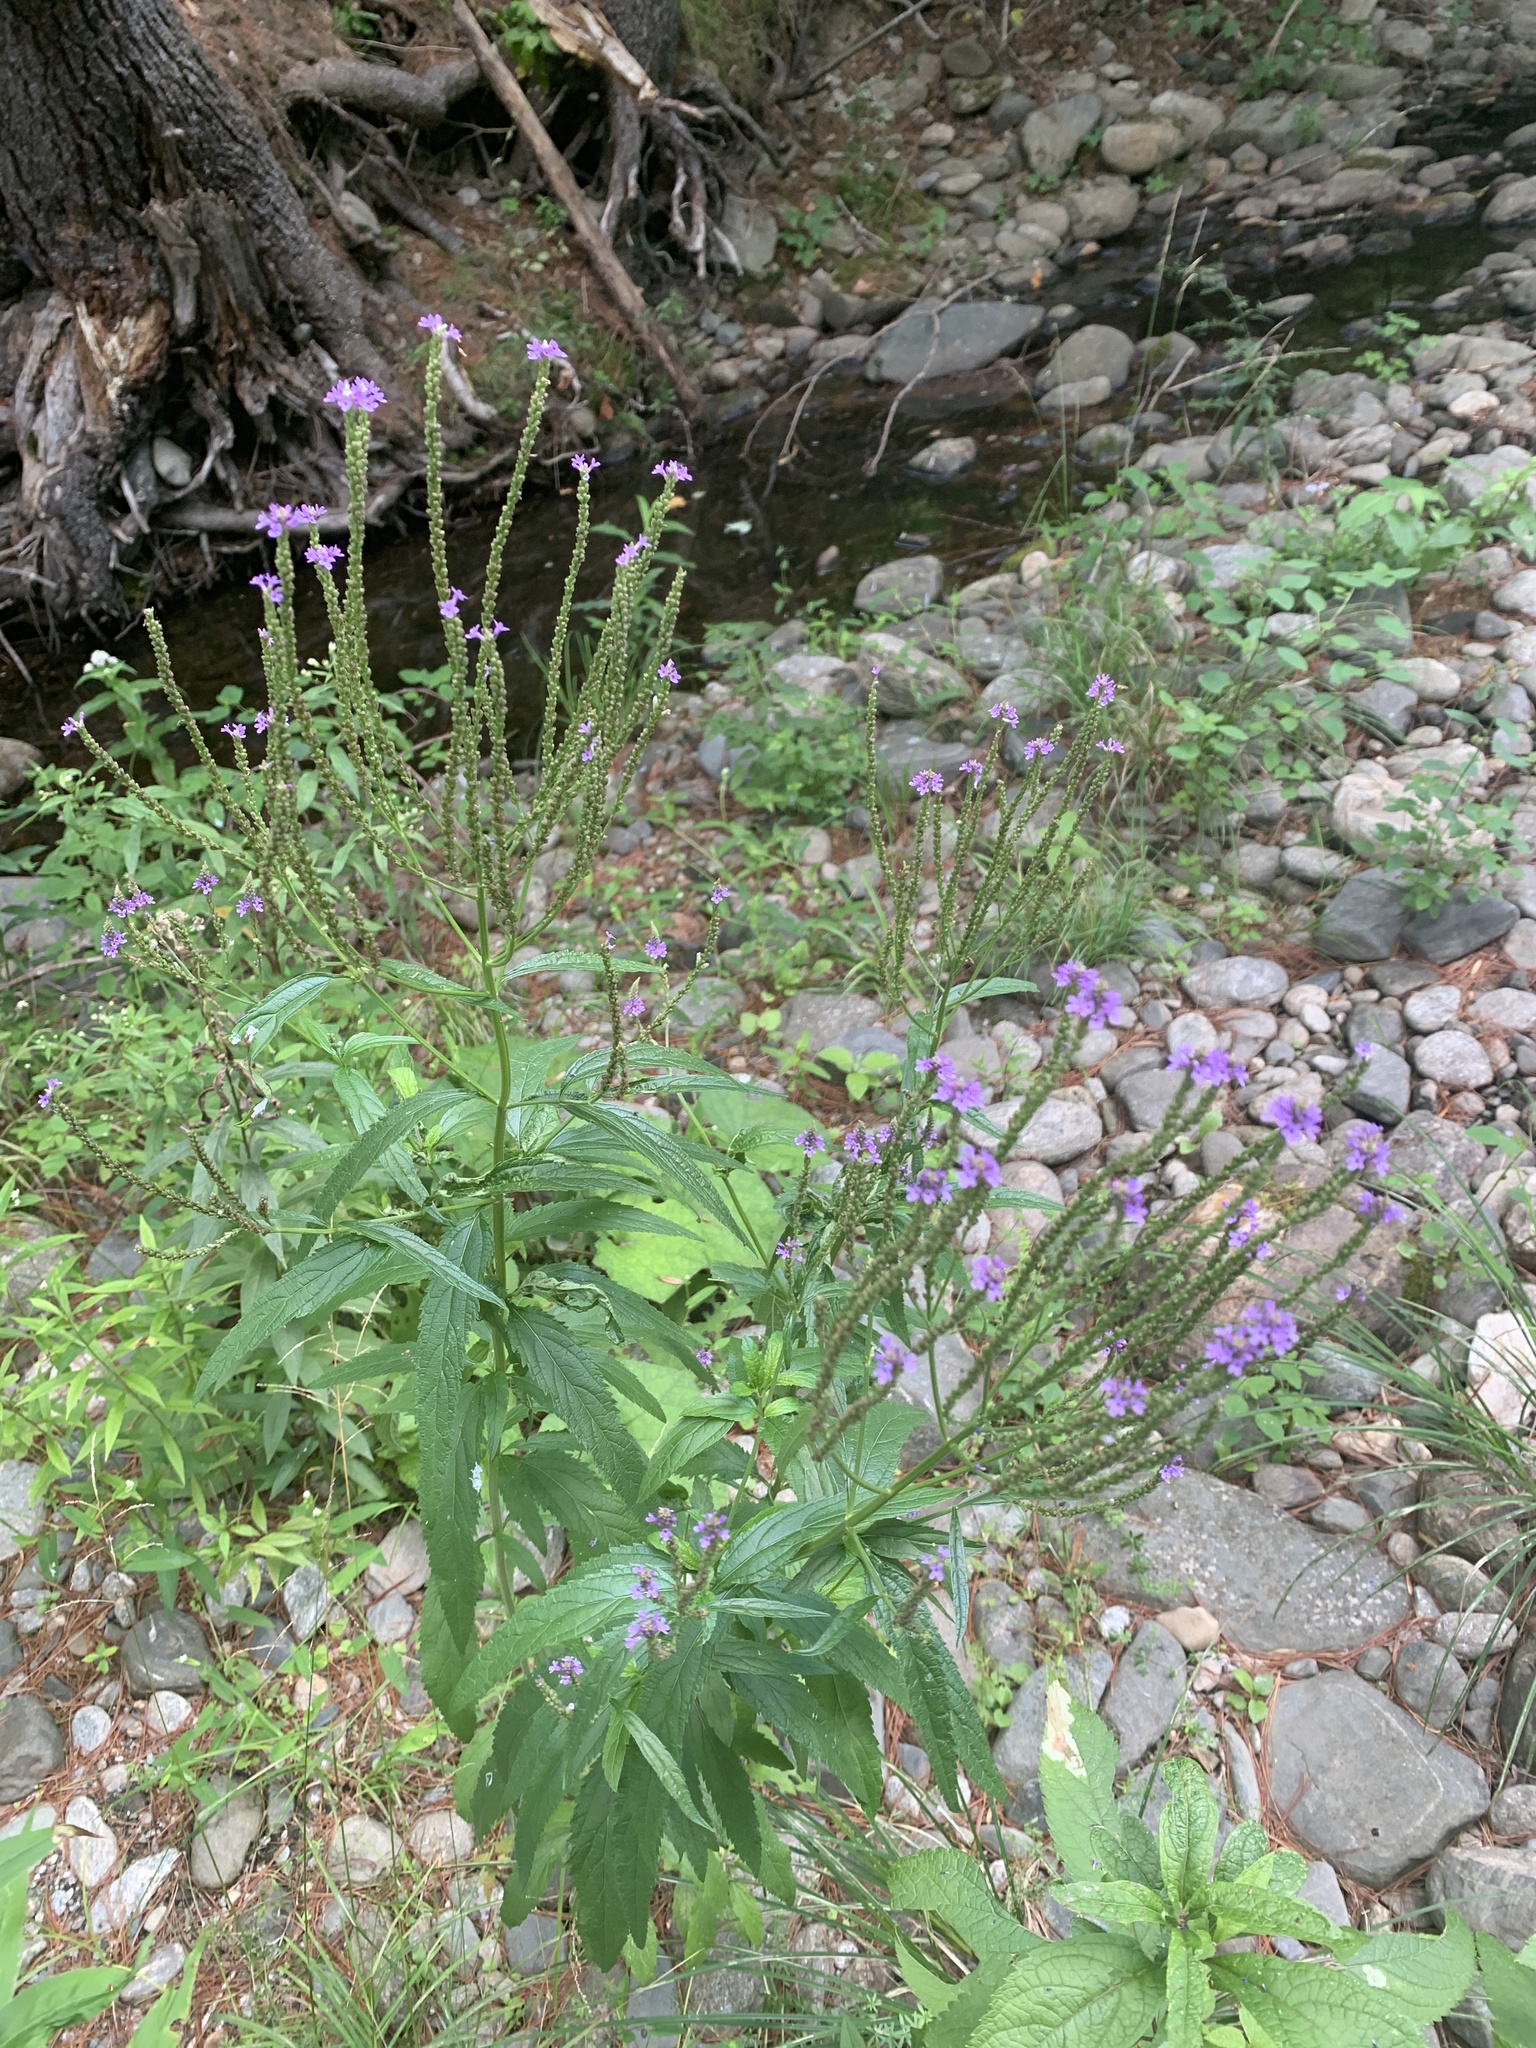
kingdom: Plantae
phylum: Tracheophyta
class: Magnoliopsida
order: Lamiales
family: Verbenaceae
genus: Verbena
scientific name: Verbena hastata
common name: American blue vervain
